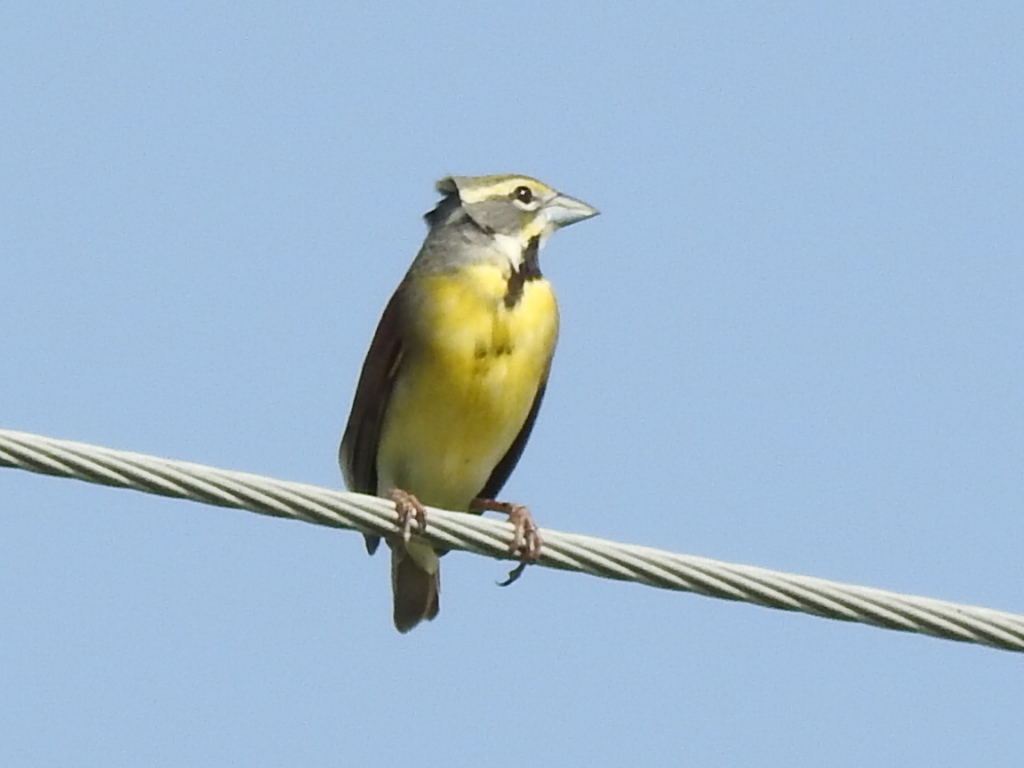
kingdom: Animalia
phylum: Chordata
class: Aves
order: Passeriformes
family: Cardinalidae
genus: Spiza
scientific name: Spiza americana
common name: Dickcissel
